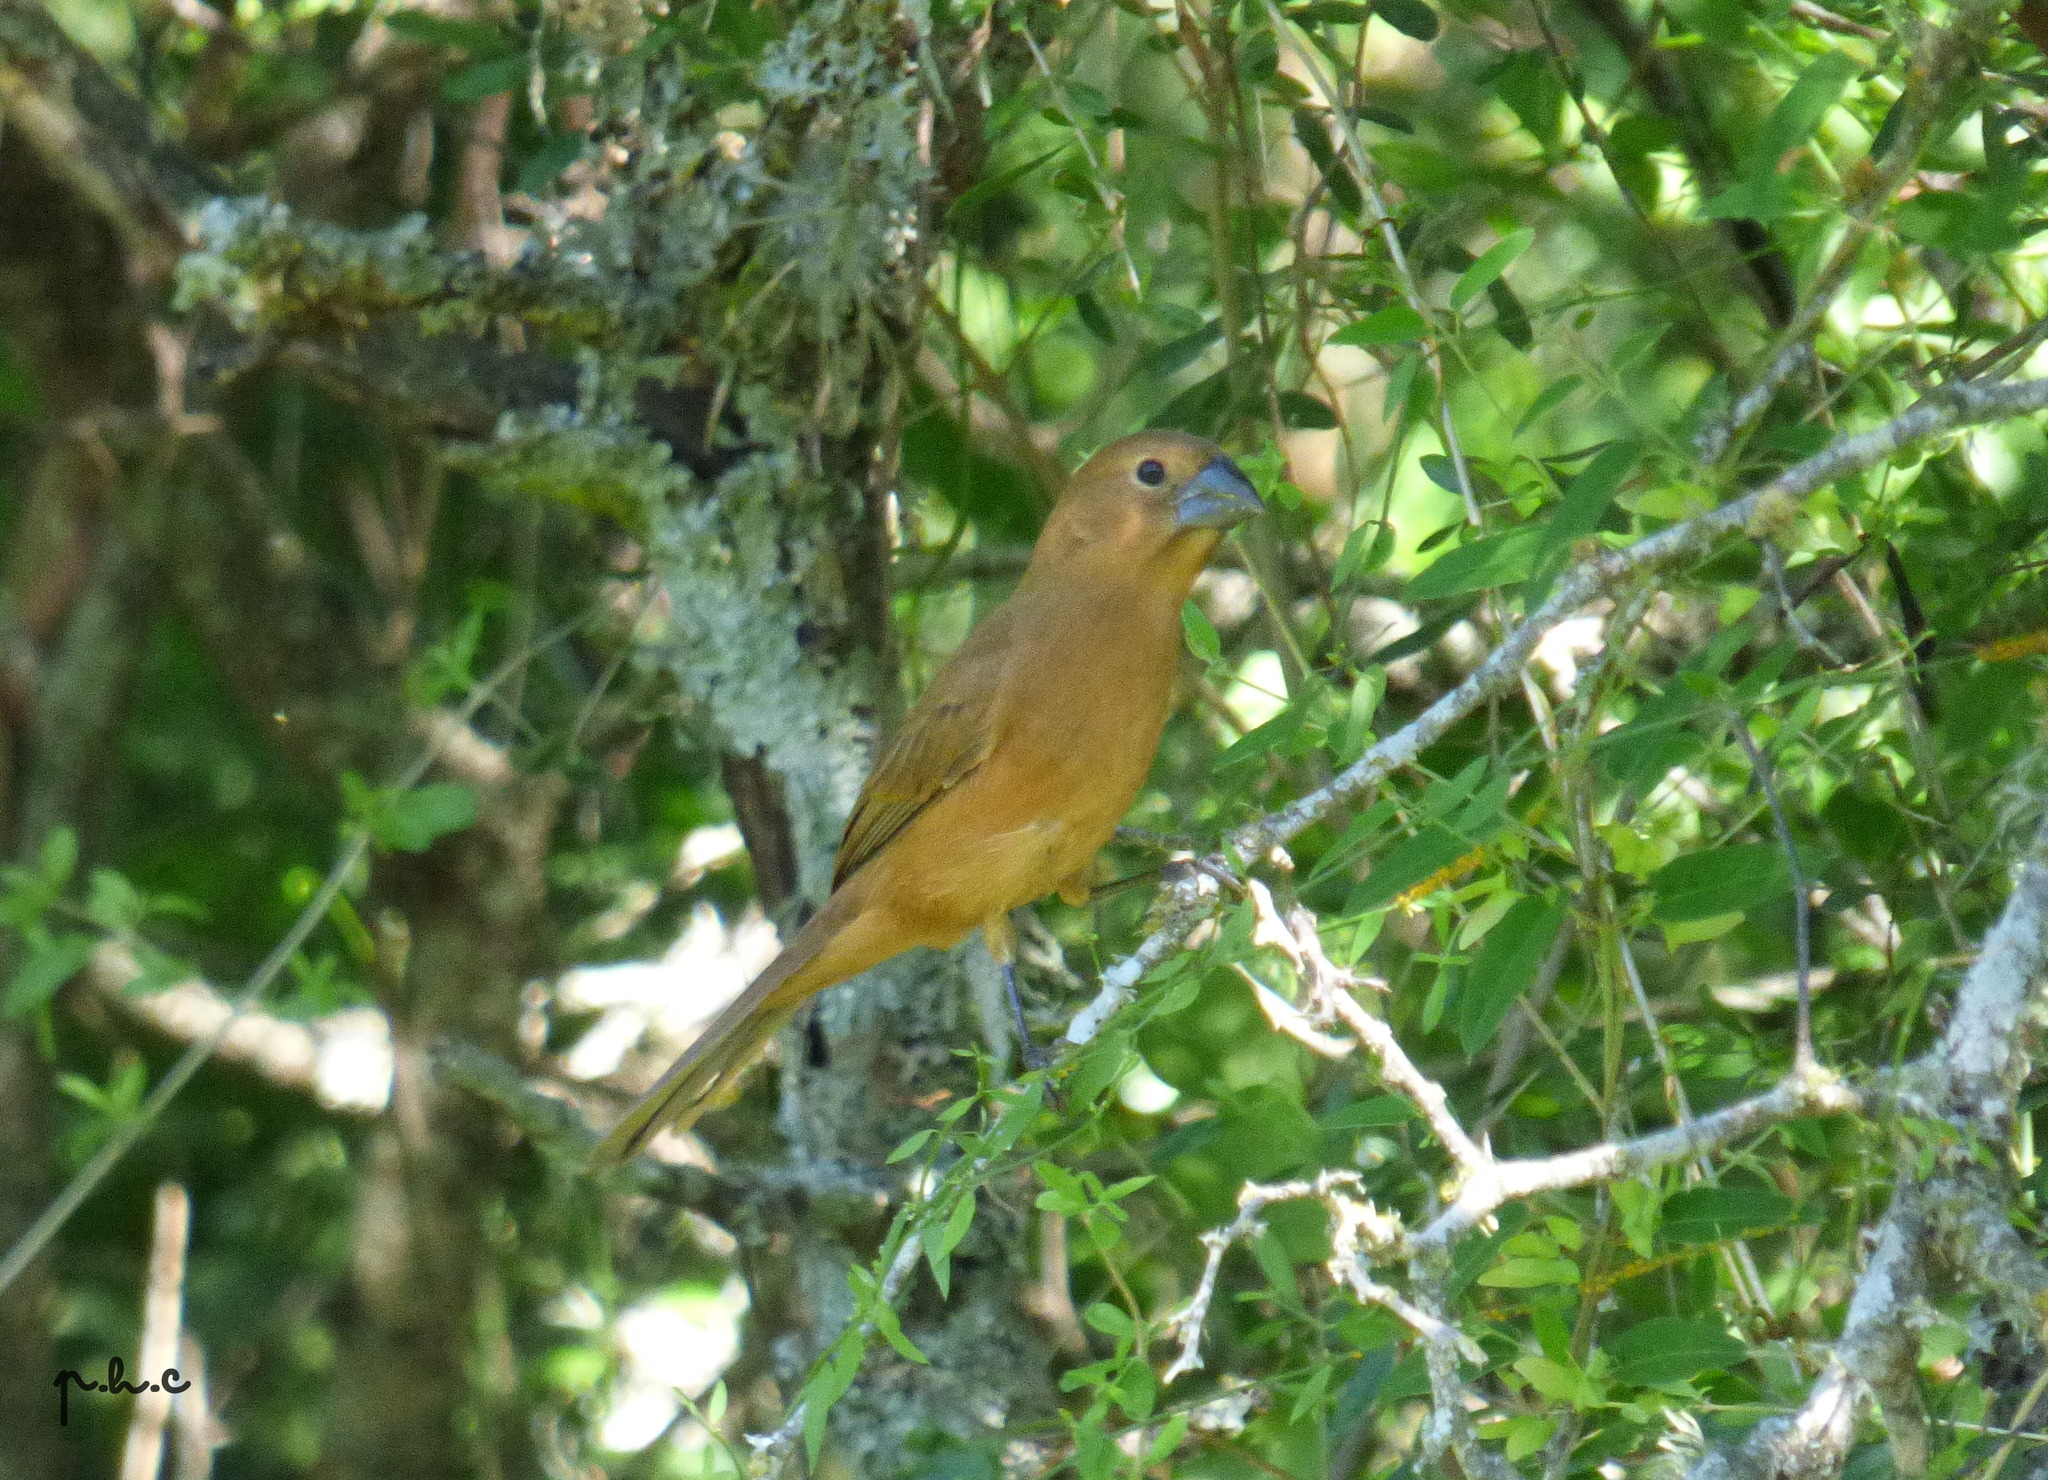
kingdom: Animalia
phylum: Chordata
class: Aves
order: Passeriformes
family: Cardinalidae
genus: Cyanoloxia
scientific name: Cyanoloxia brissonii
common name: Ultramarine grosbeak
